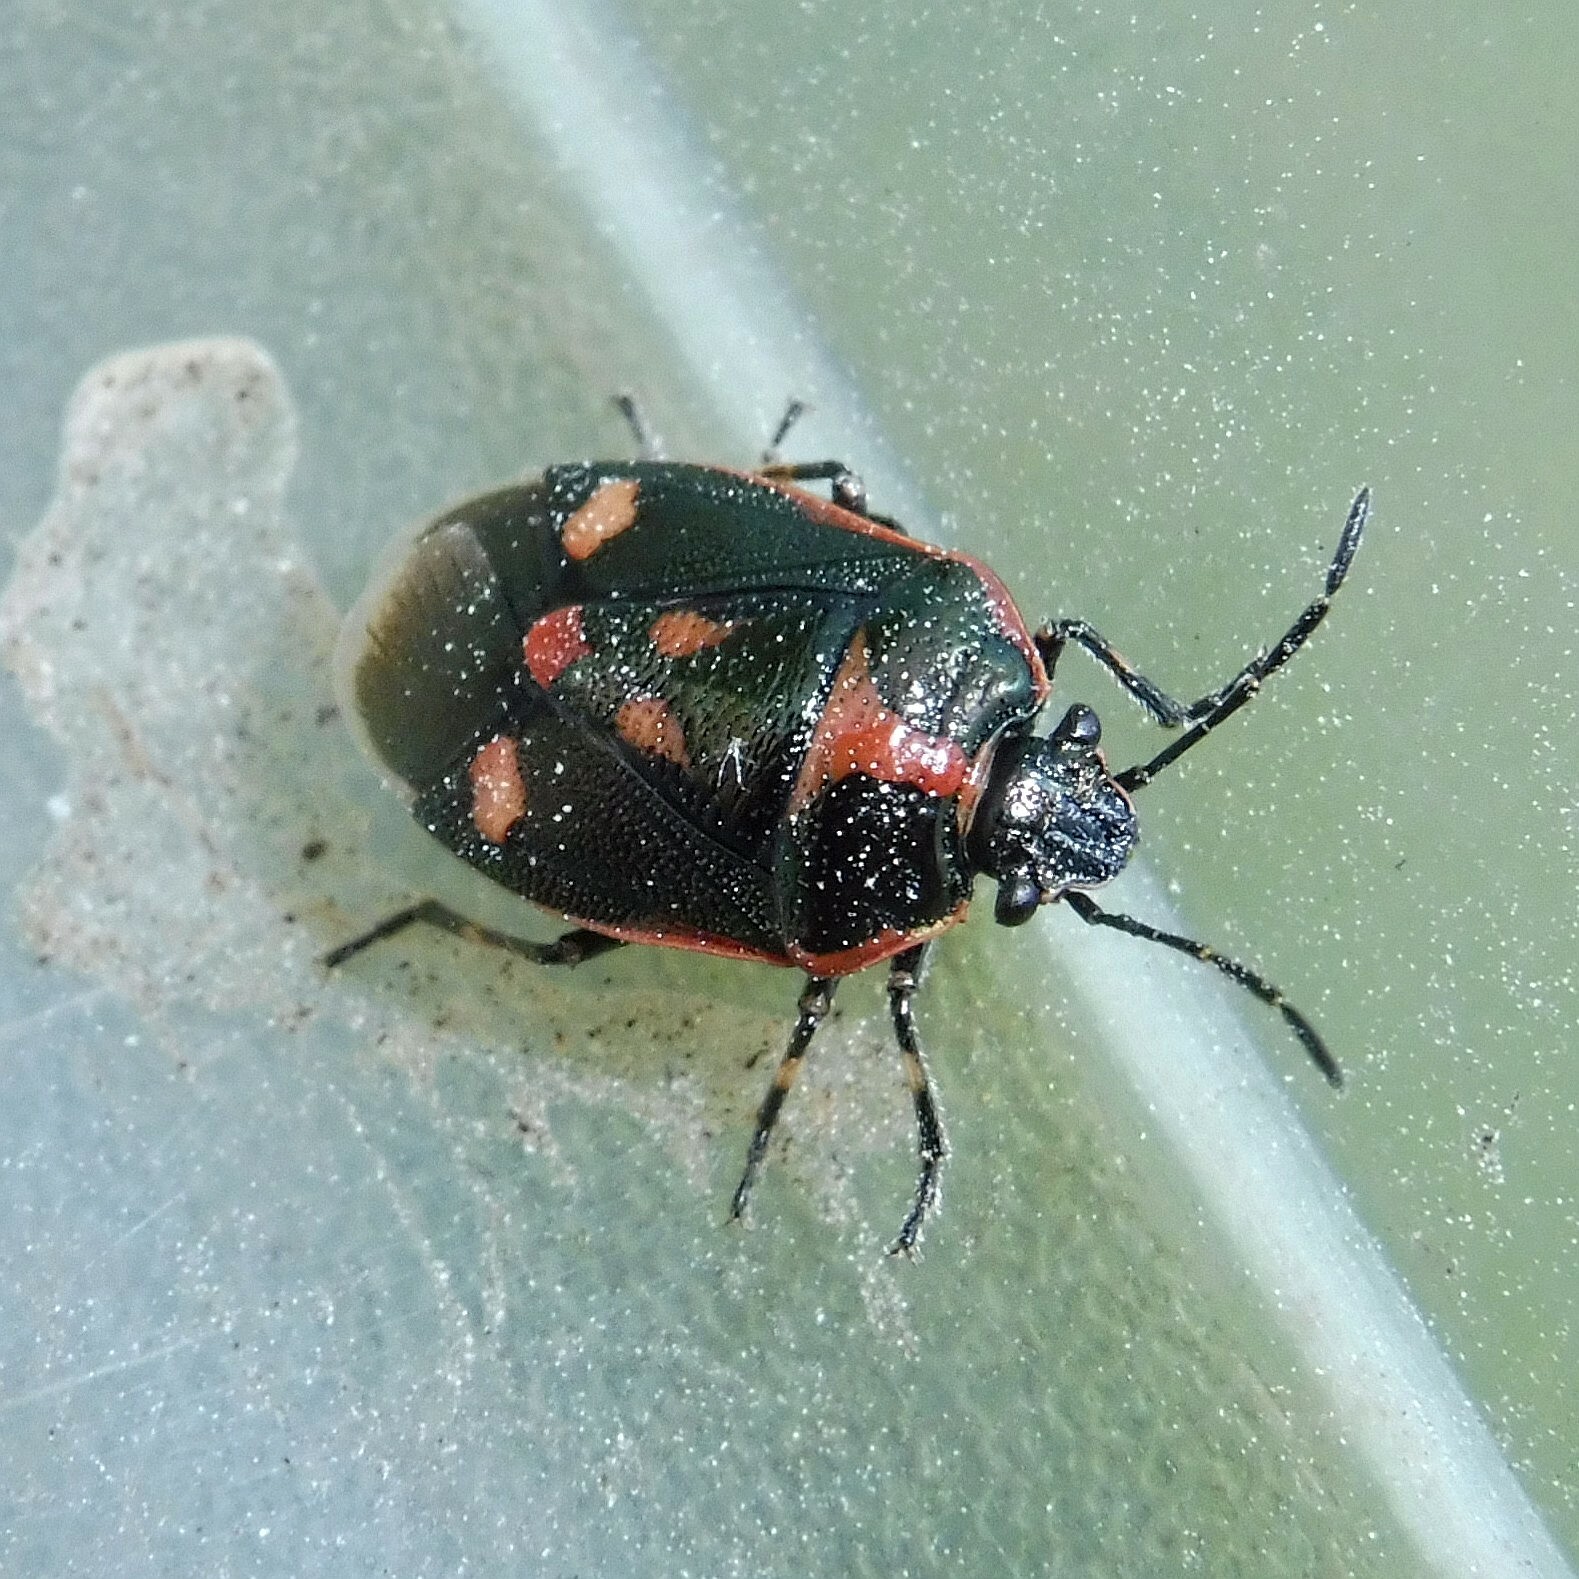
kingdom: Animalia
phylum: Arthropoda
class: Insecta
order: Hemiptera
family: Pentatomidae
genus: Eurydema
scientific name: Eurydema oleracea
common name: Cabbage bug
